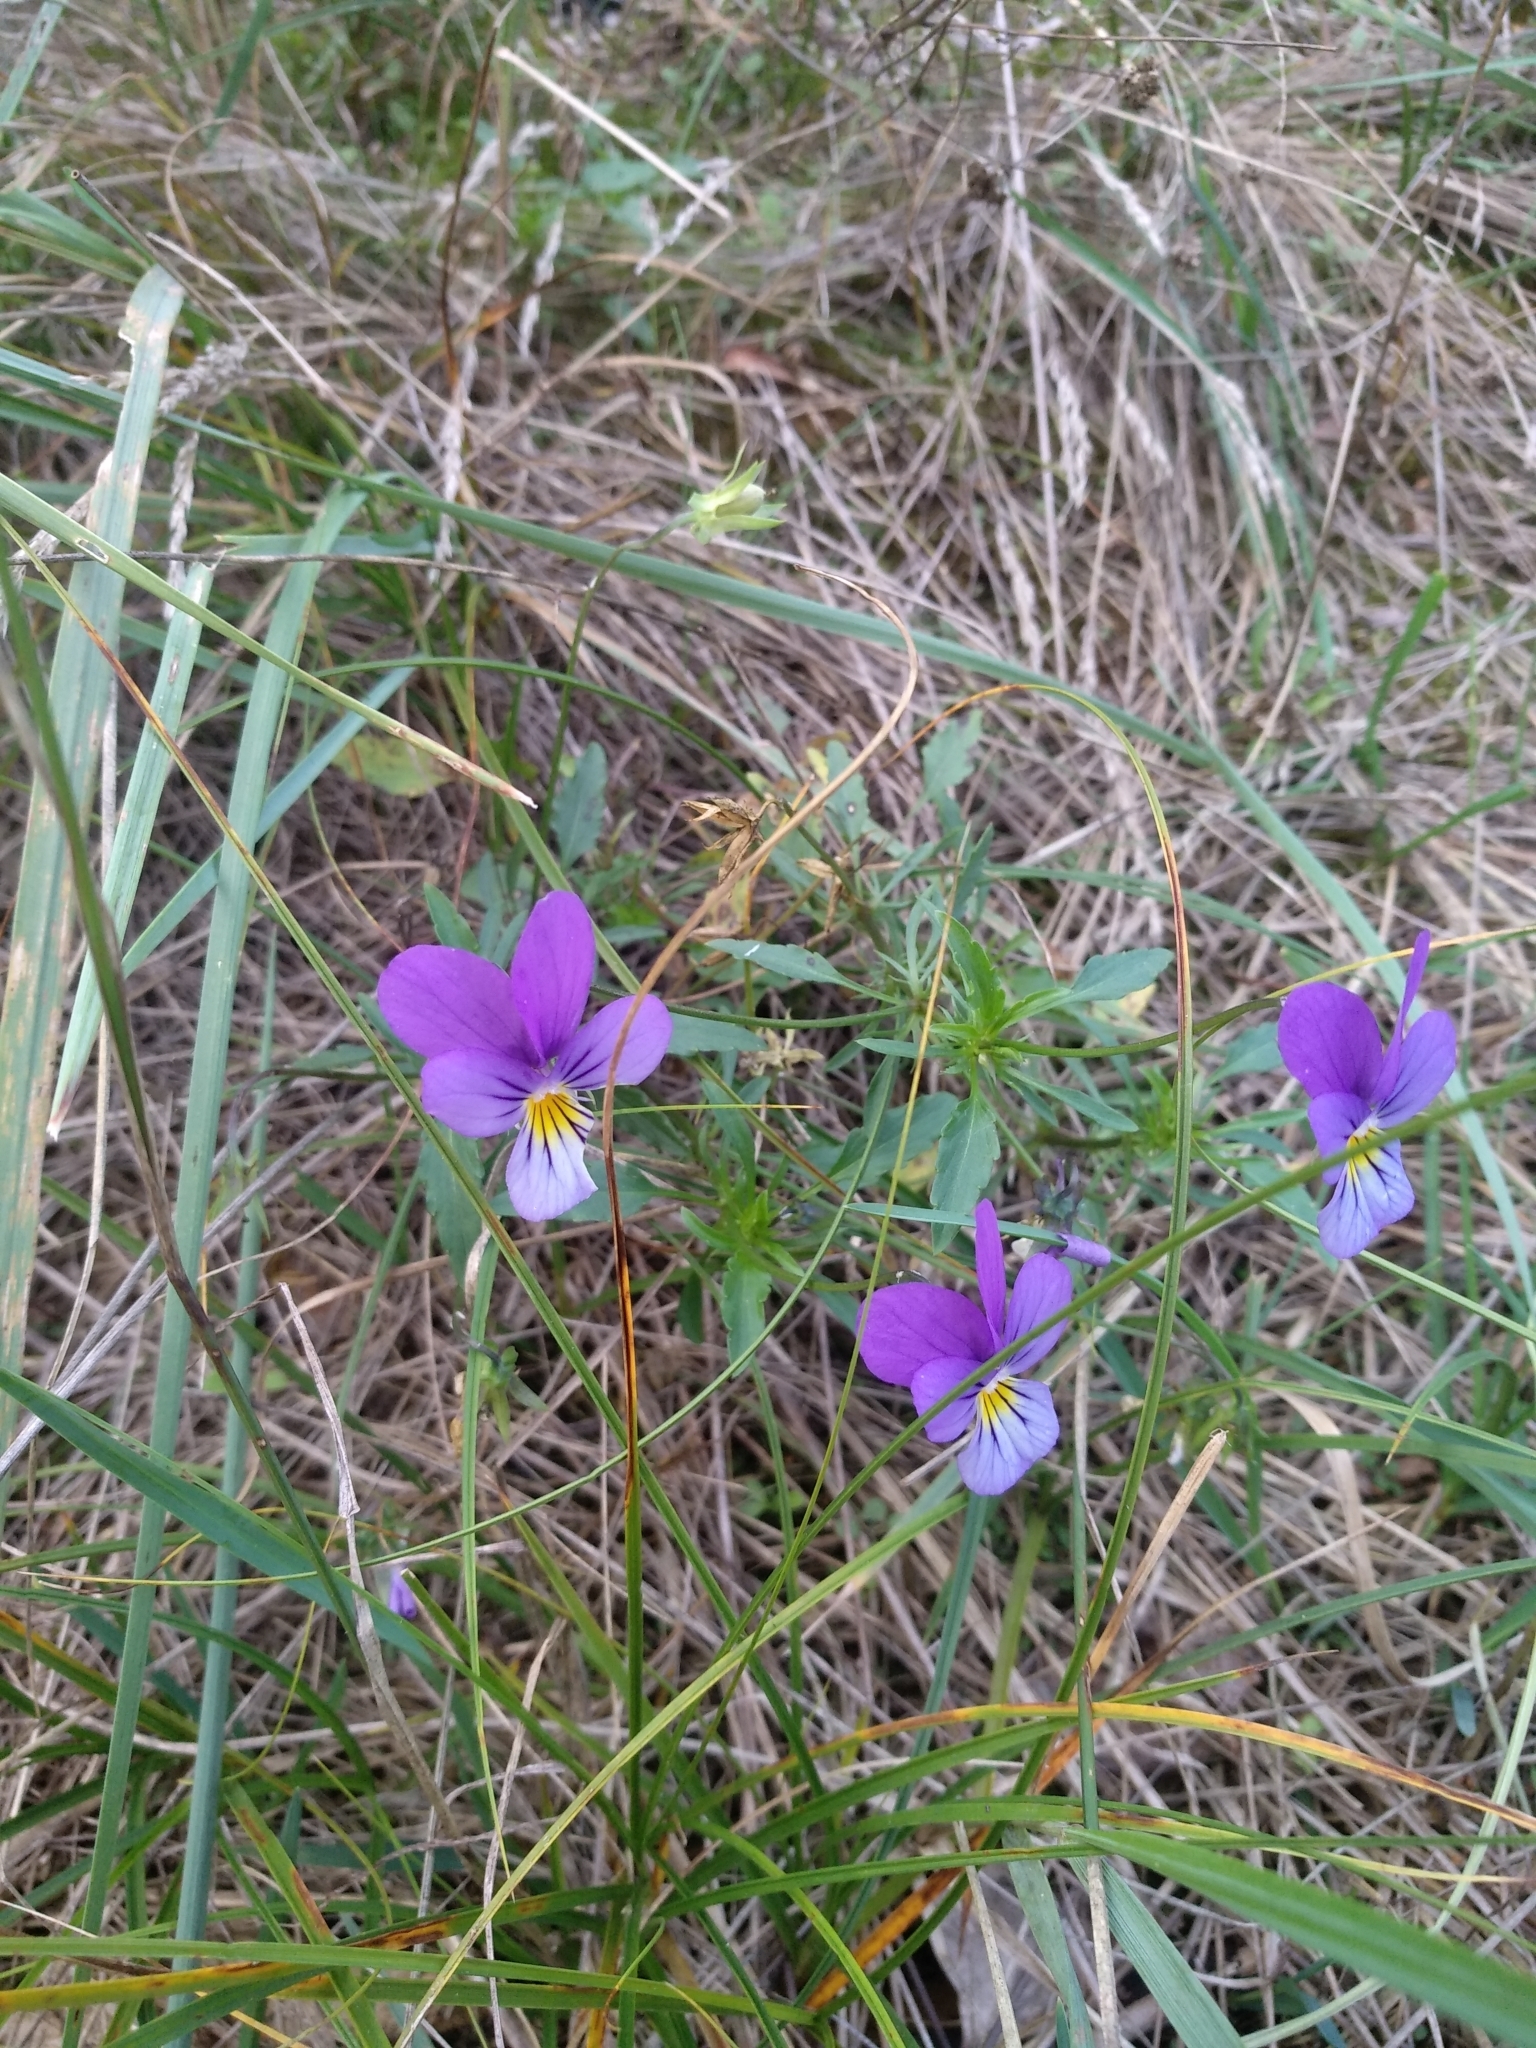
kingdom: Plantae
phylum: Tracheophyta
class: Magnoliopsida
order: Malpighiales
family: Violaceae
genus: Viola
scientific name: Viola tricolor
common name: Pansy
